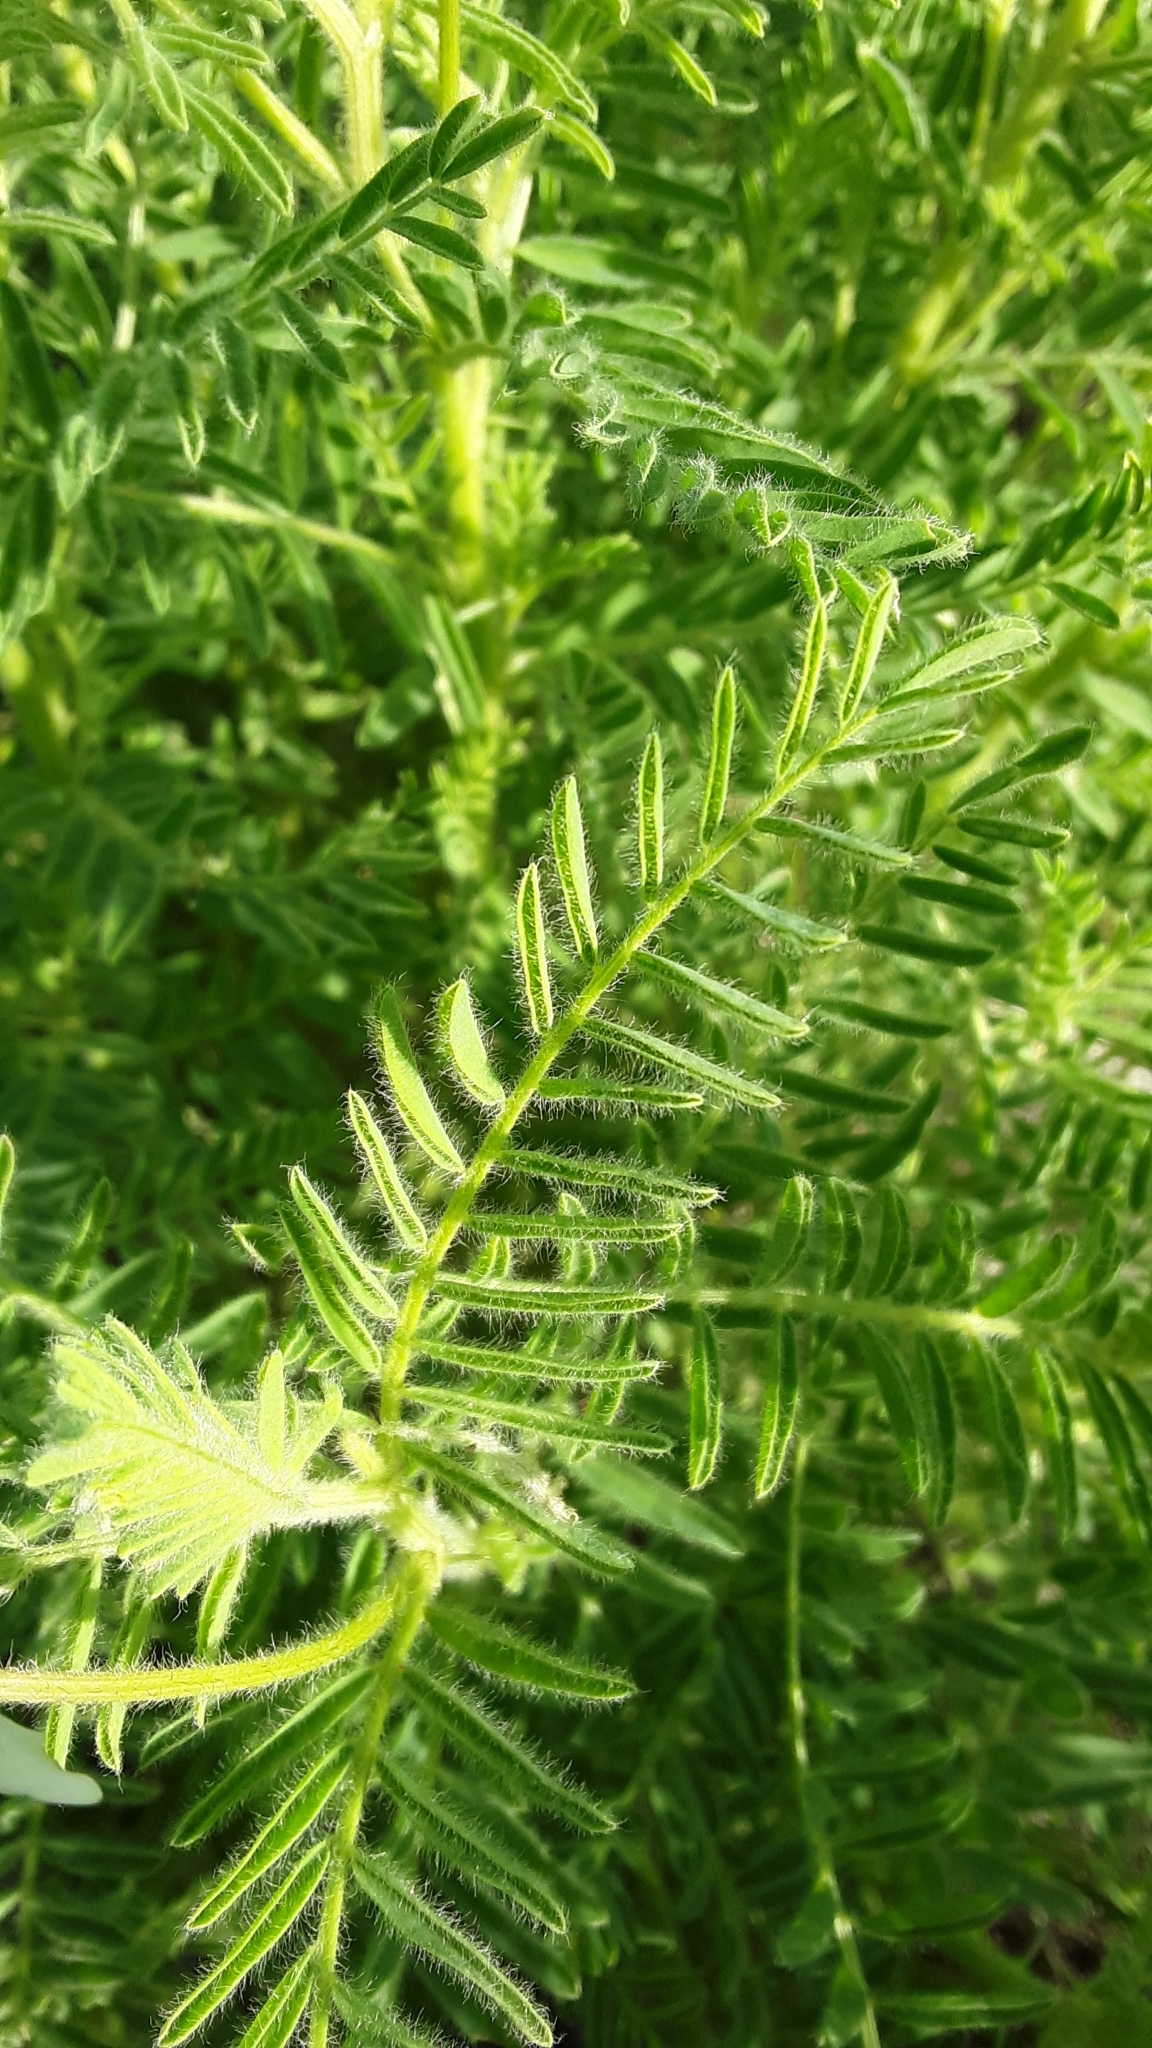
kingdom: Plantae
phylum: Tracheophyta
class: Magnoliopsida
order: Fabales
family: Fabaceae
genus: Astragalus
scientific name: Astragalus drummondii
